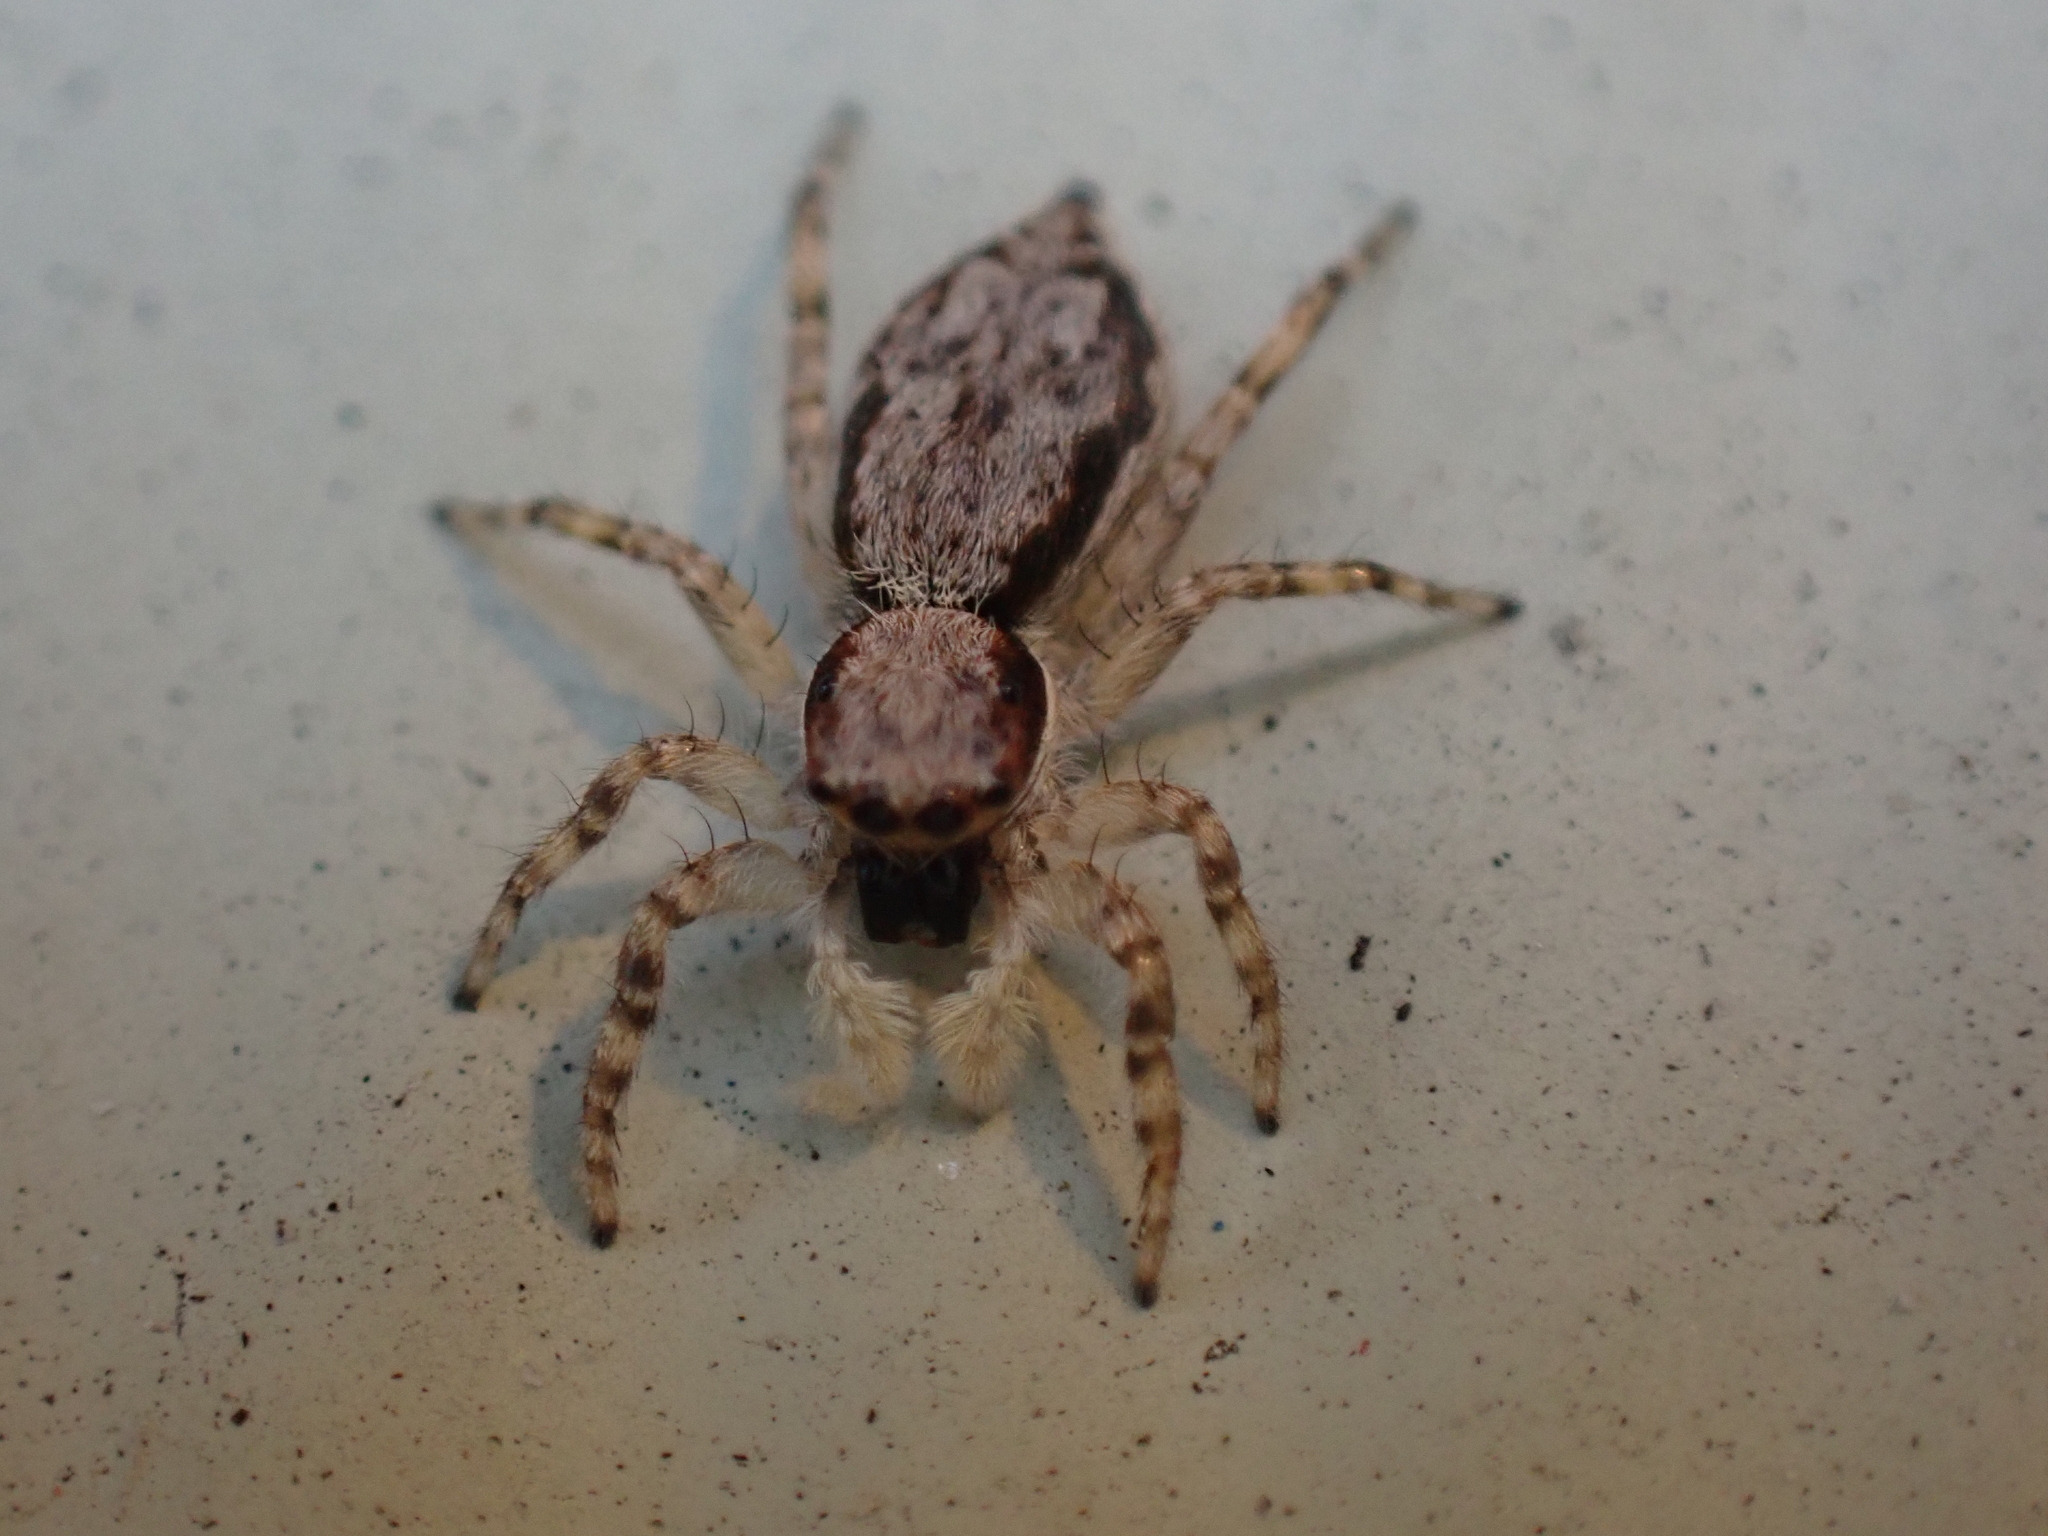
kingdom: Animalia
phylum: Arthropoda
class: Arachnida
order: Araneae
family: Salticidae
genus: Menemerus
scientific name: Menemerus bivittatus
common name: Gray wall jumper
